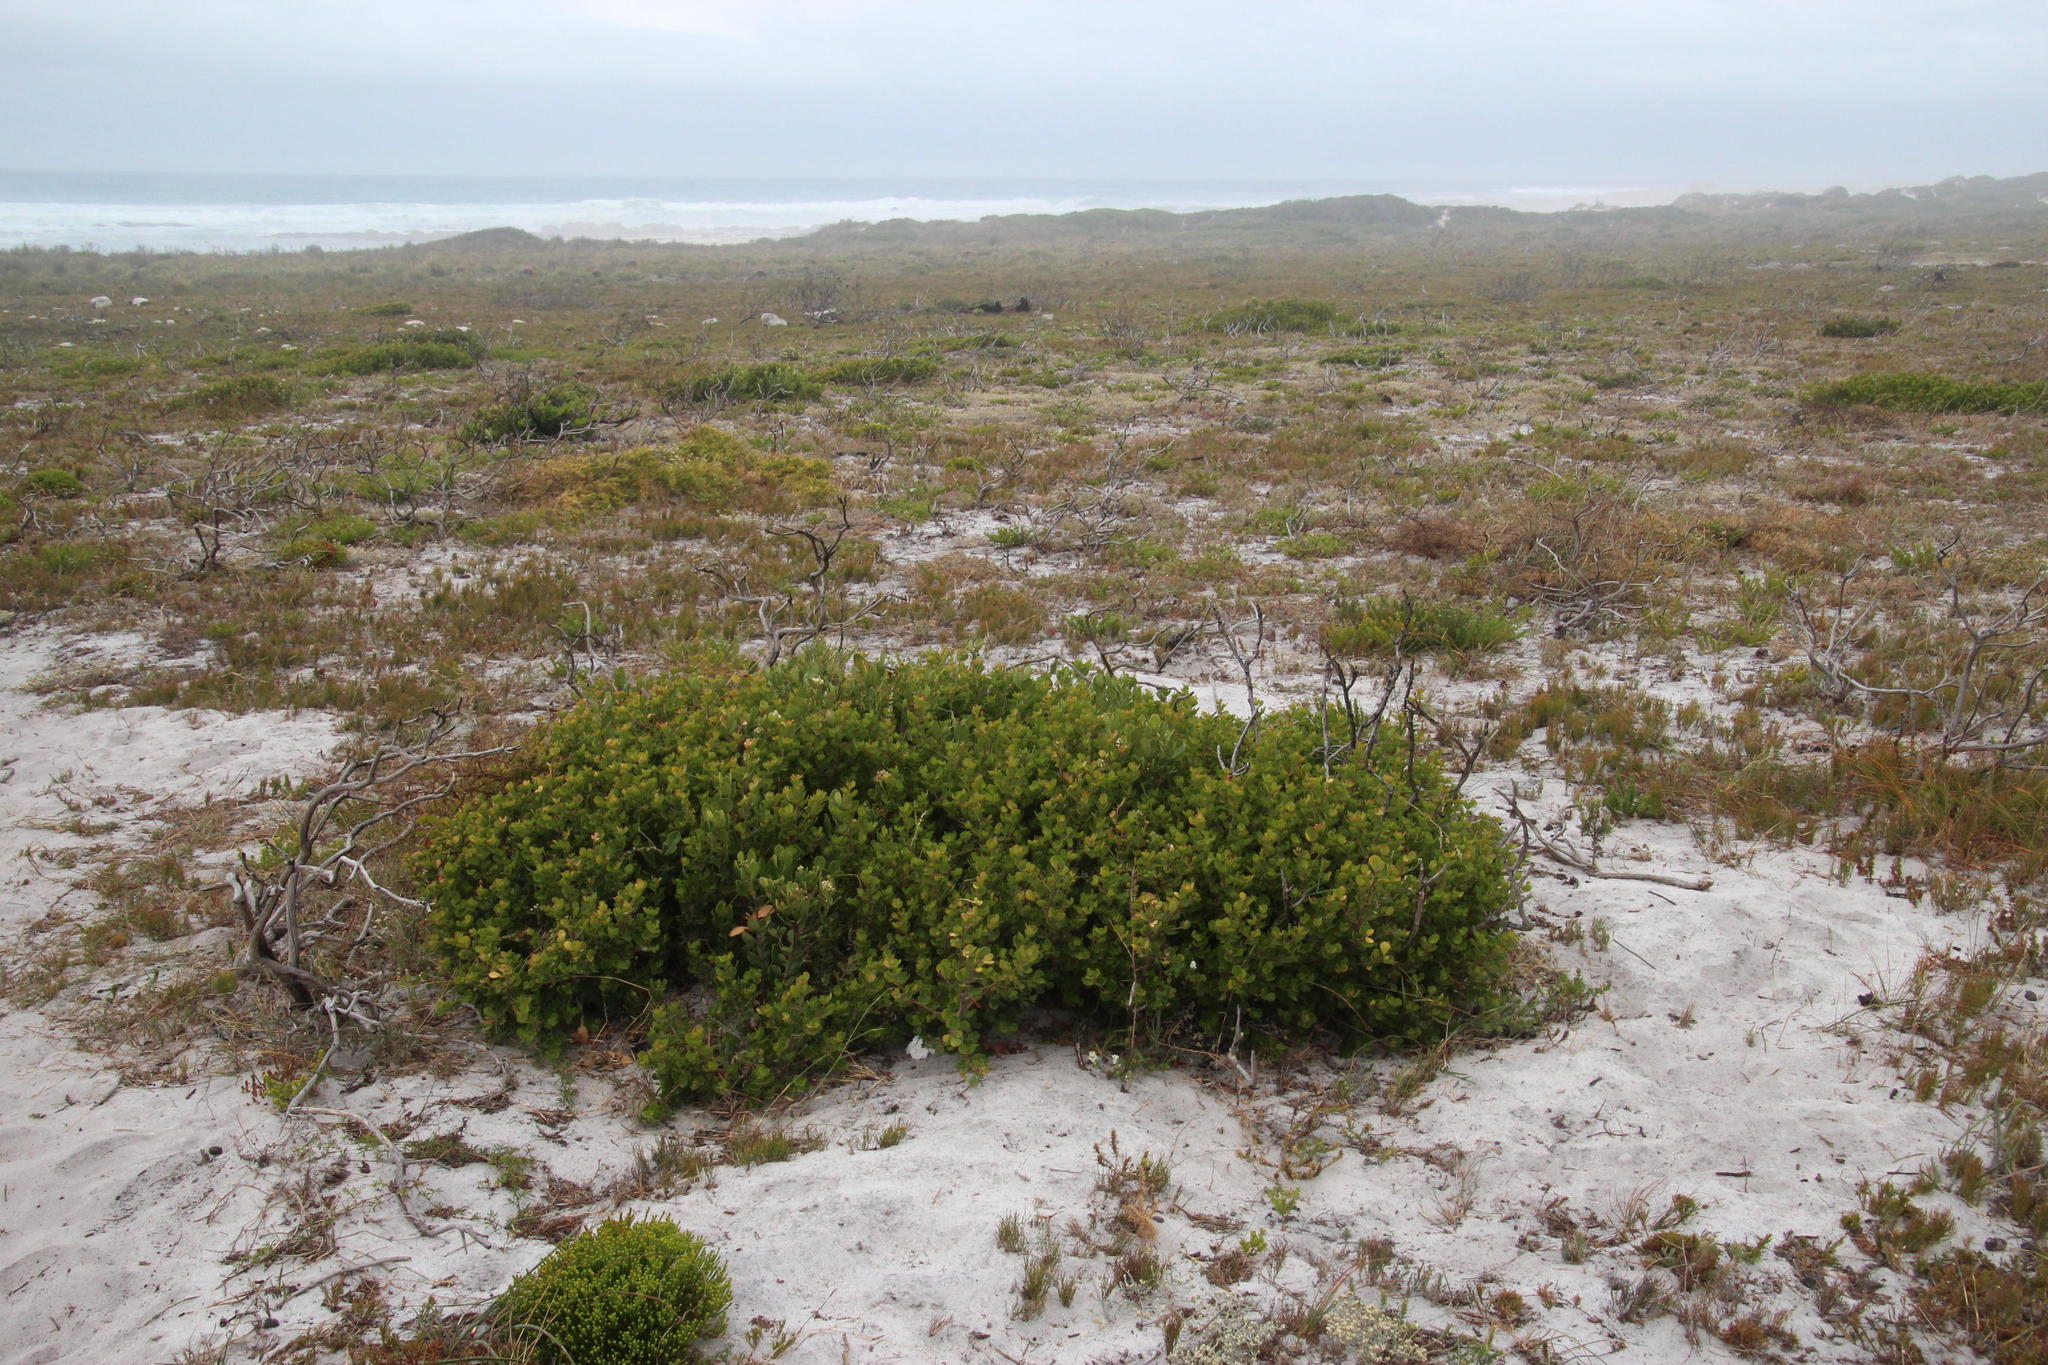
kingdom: Plantae
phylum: Tracheophyta
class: Magnoliopsida
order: Sapindales
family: Anacardiaceae
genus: Searsia
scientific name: Searsia lucida
